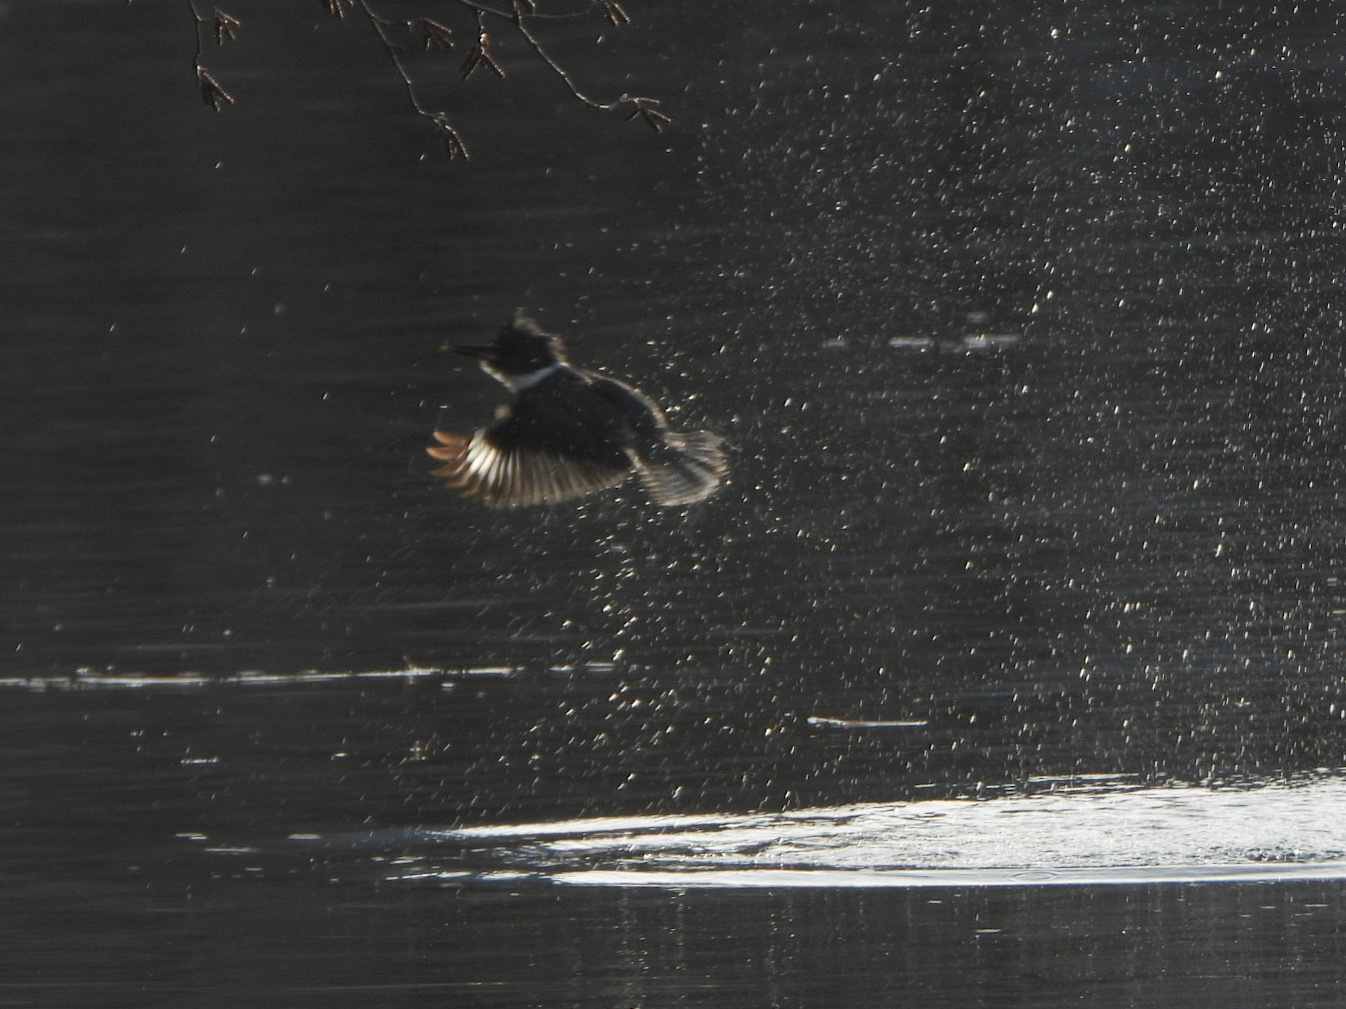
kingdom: Animalia
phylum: Chordata
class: Aves
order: Coraciiformes
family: Alcedinidae
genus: Megaceryle
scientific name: Megaceryle alcyon
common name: Belted kingfisher
